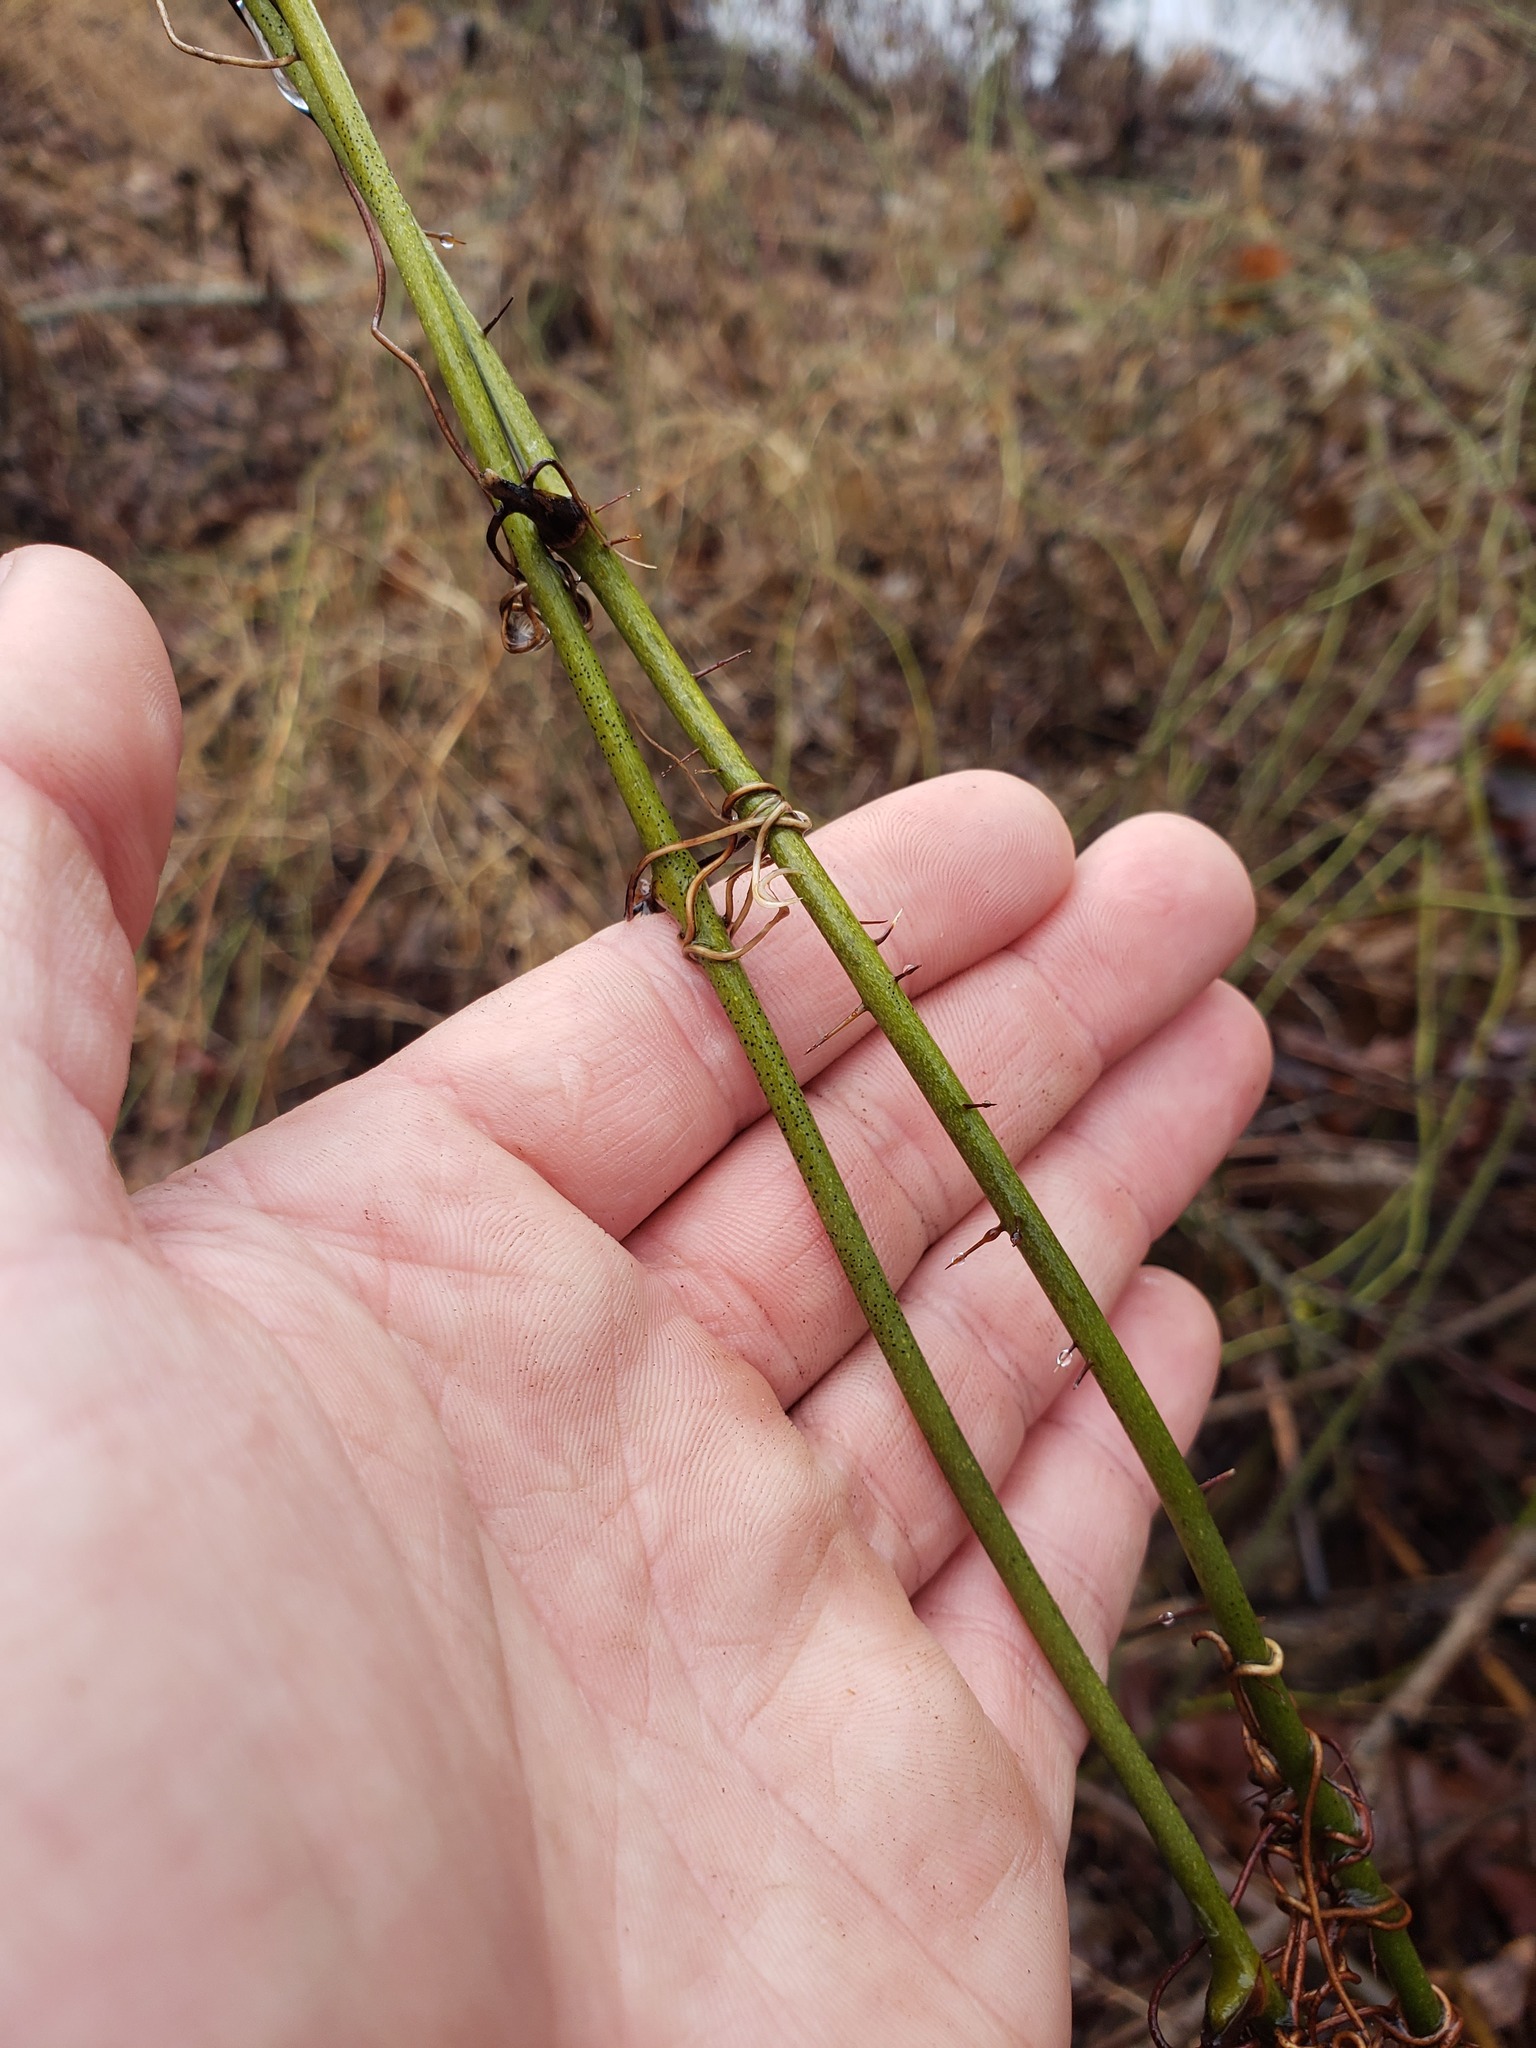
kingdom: Plantae
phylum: Tracheophyta
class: Liliopsida
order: Liliales
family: Smilacaceae
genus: Smilax
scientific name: Smilax tamnoides
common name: Hellfetter
